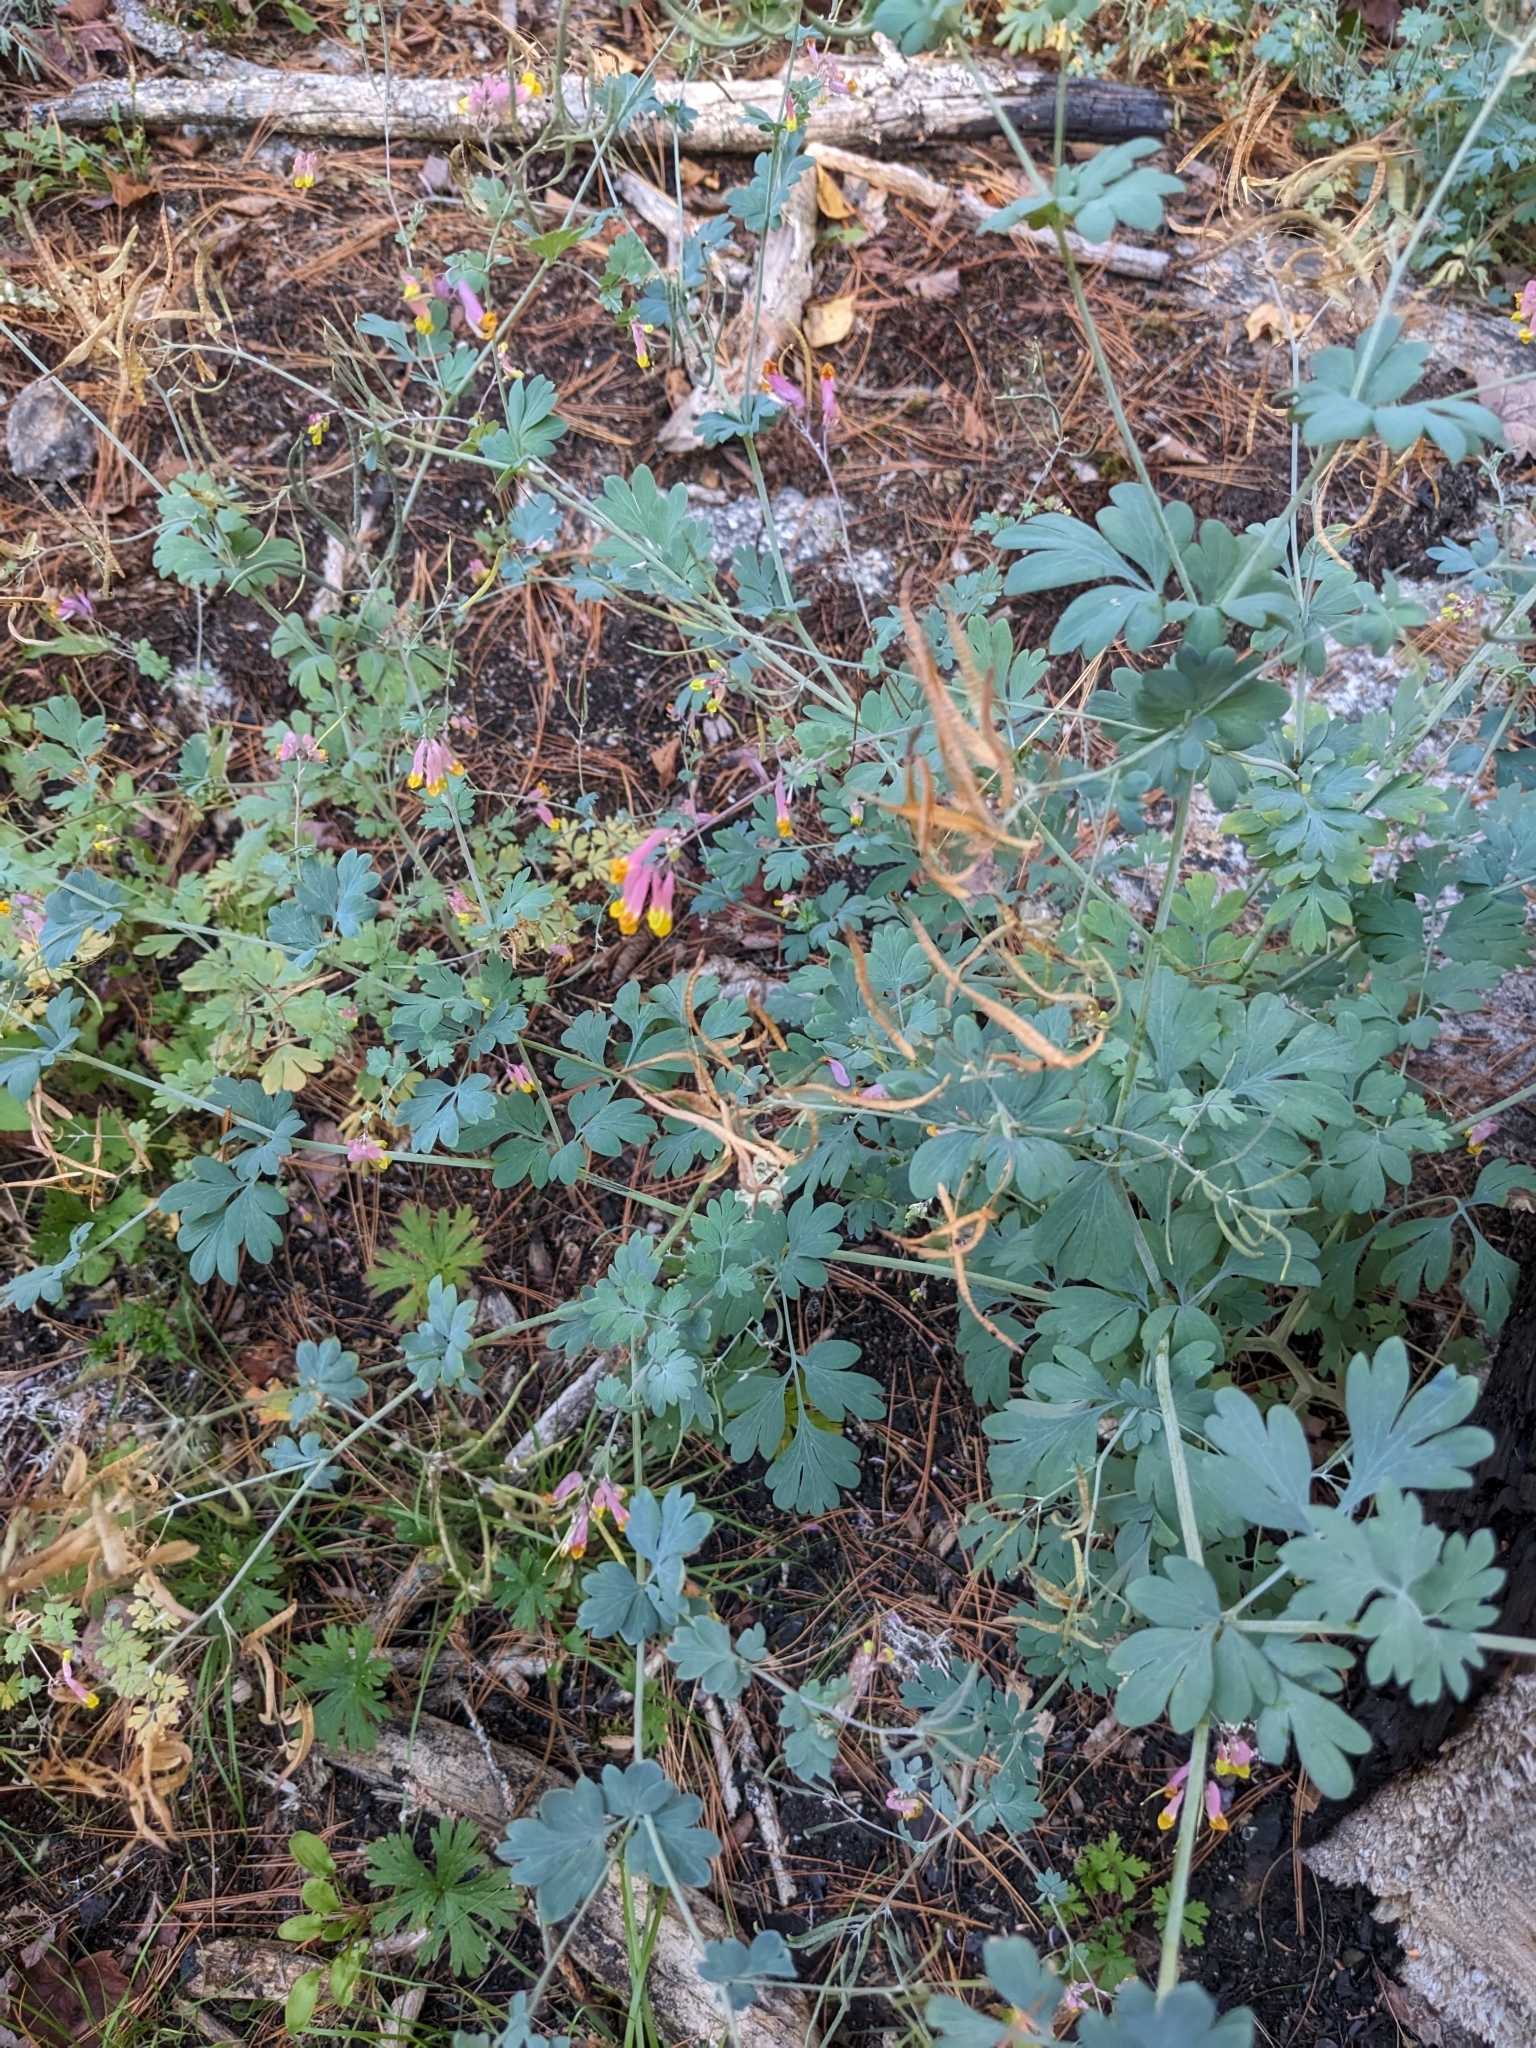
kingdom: Plantae
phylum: Tracheophyta
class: Magnoliopsida
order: Ranunculales
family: Papaveraceae
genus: Capnoides
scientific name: Capnoides sempervirens
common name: Rock harlequin
